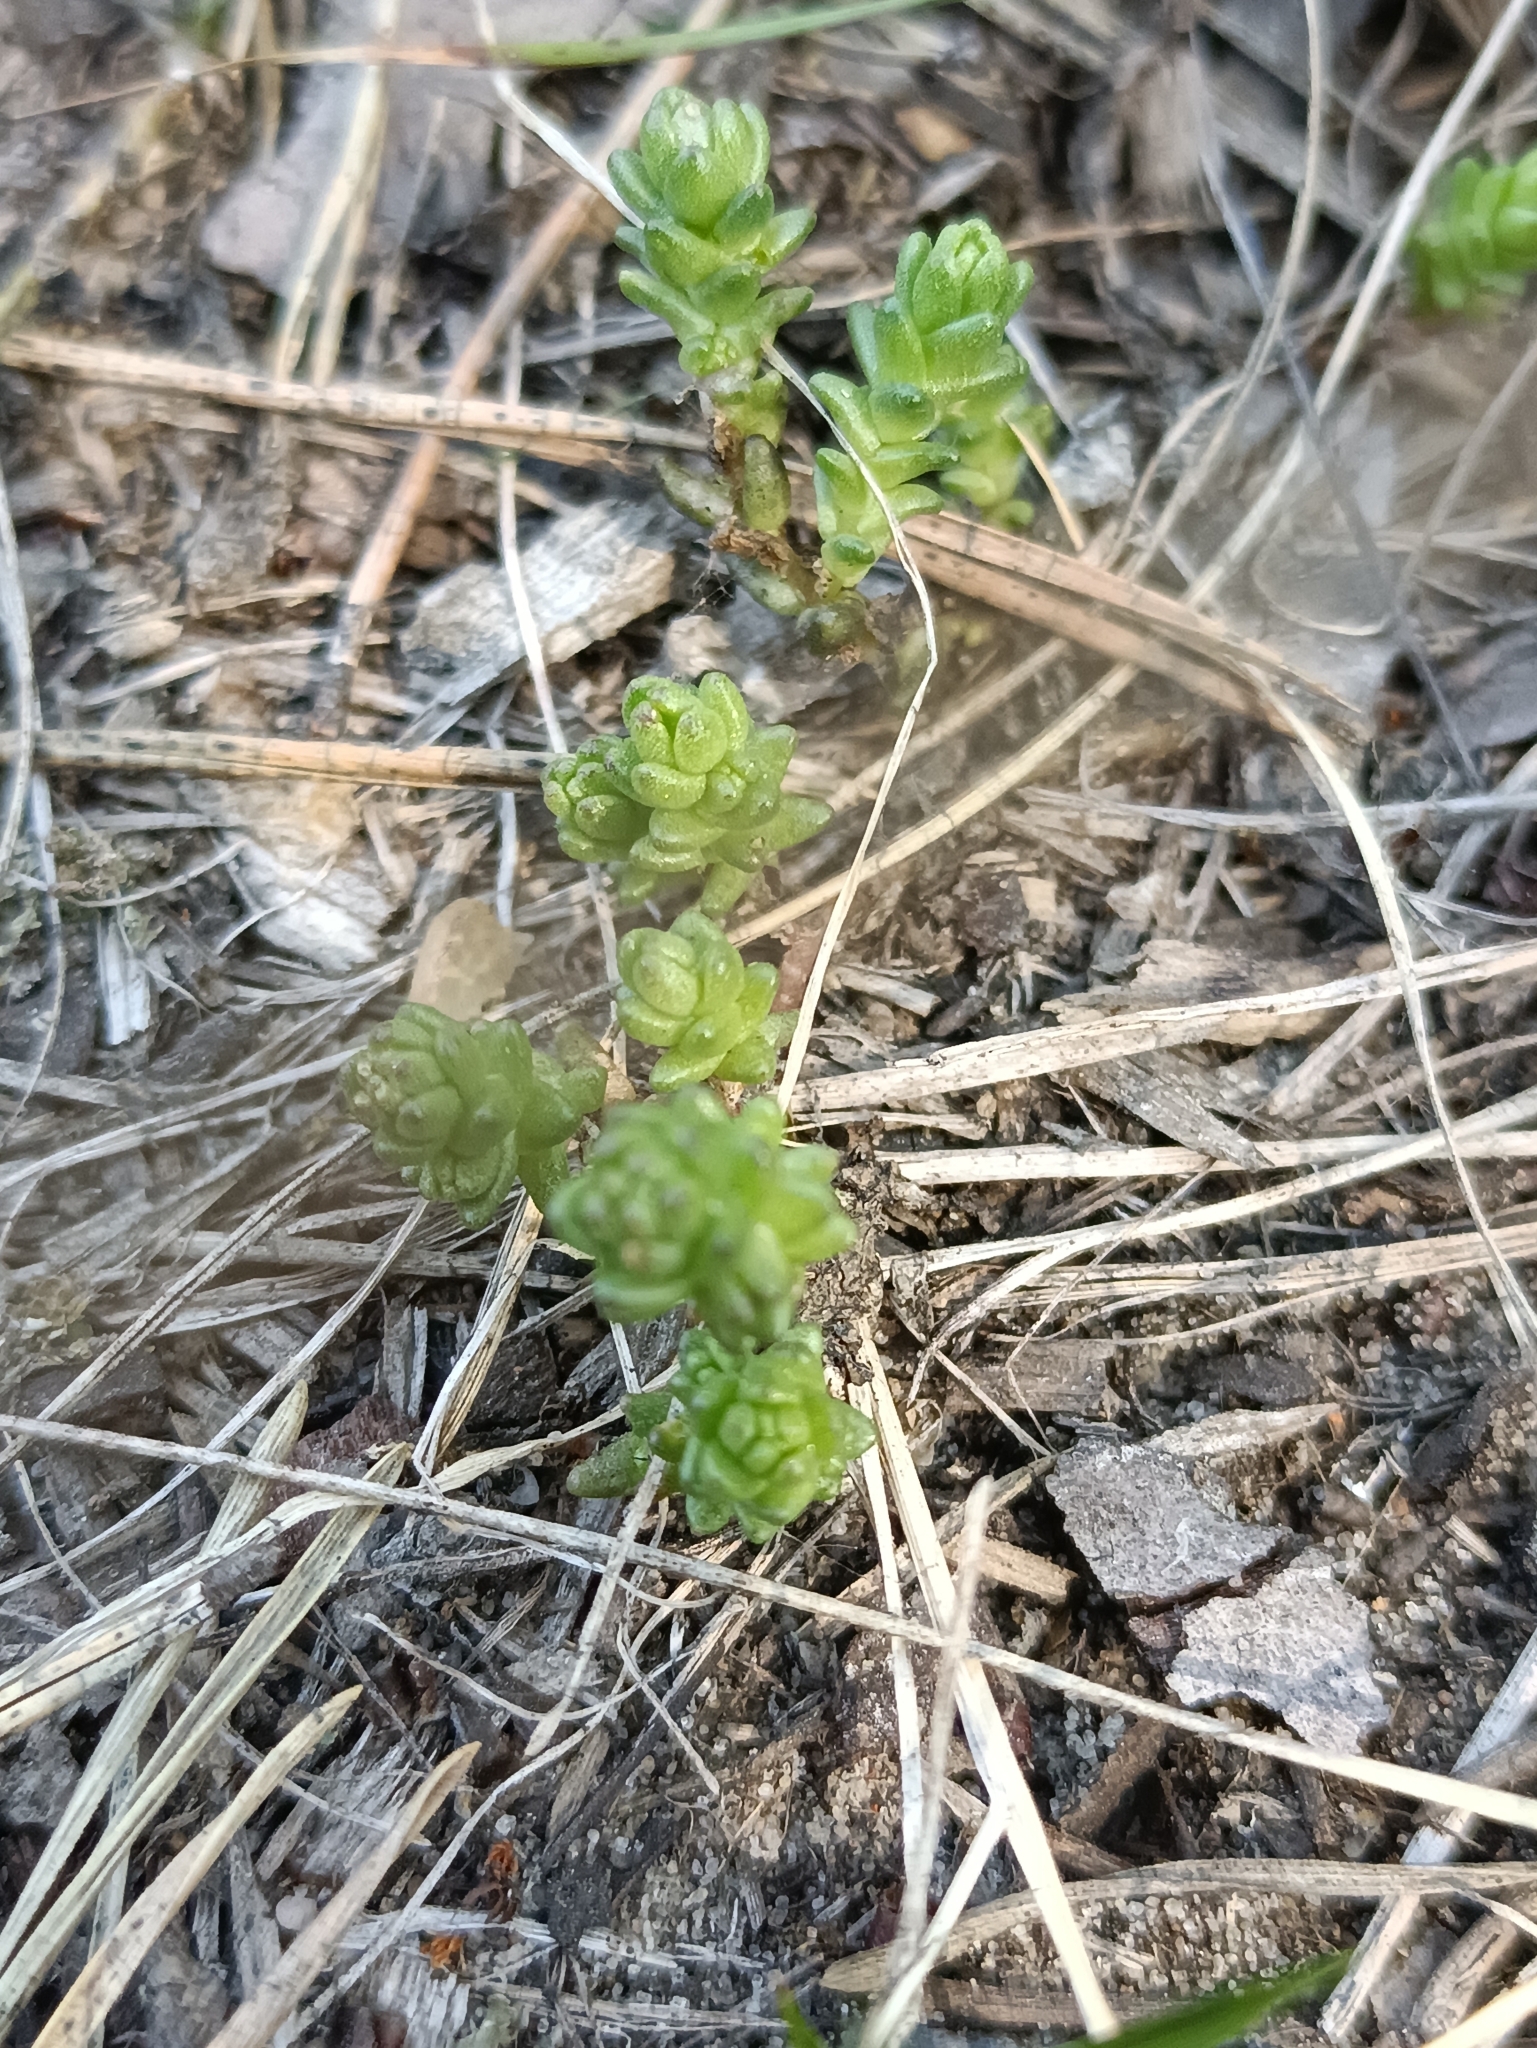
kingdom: Plantae
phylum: Tracheophyta
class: Magnoliopsida
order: Saxifragales
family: Crassulaceae
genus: Sedum
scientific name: Sedum acre
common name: Biting stonecrop
